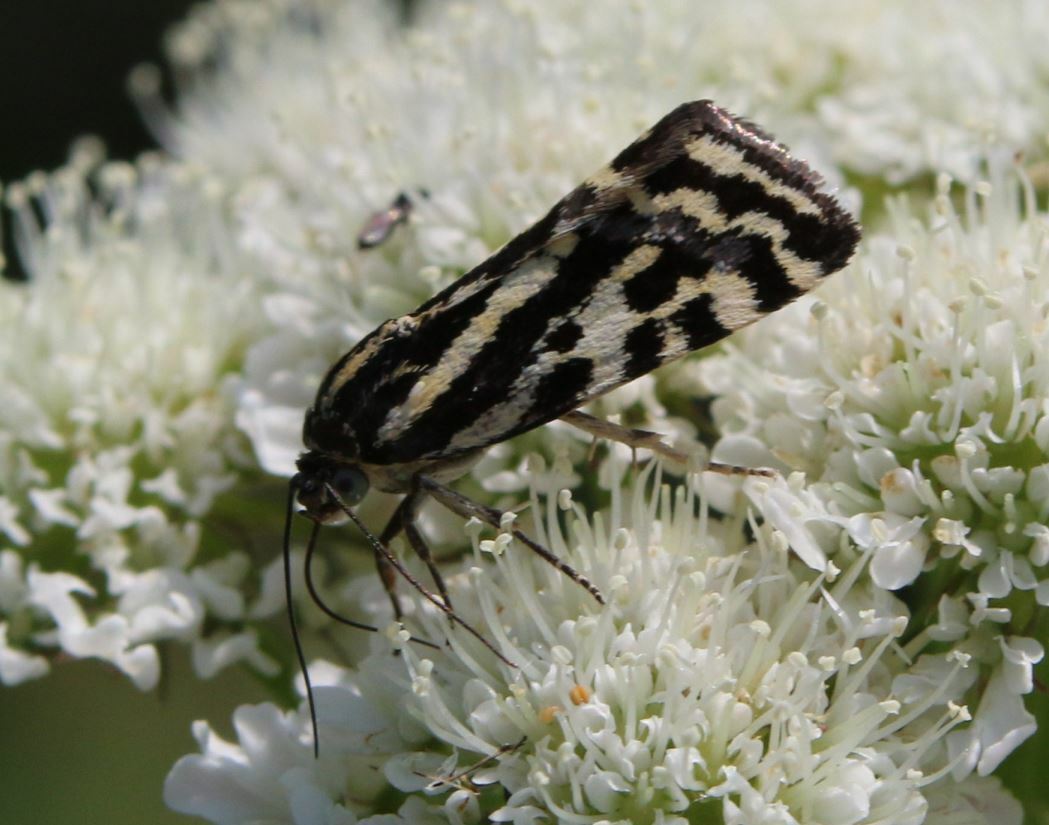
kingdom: Animalia
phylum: Arthropoda
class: Insecta
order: Lepidoptera
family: Noctuidae
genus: Acontia
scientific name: Acontia trabealis
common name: Spotted sulphur
